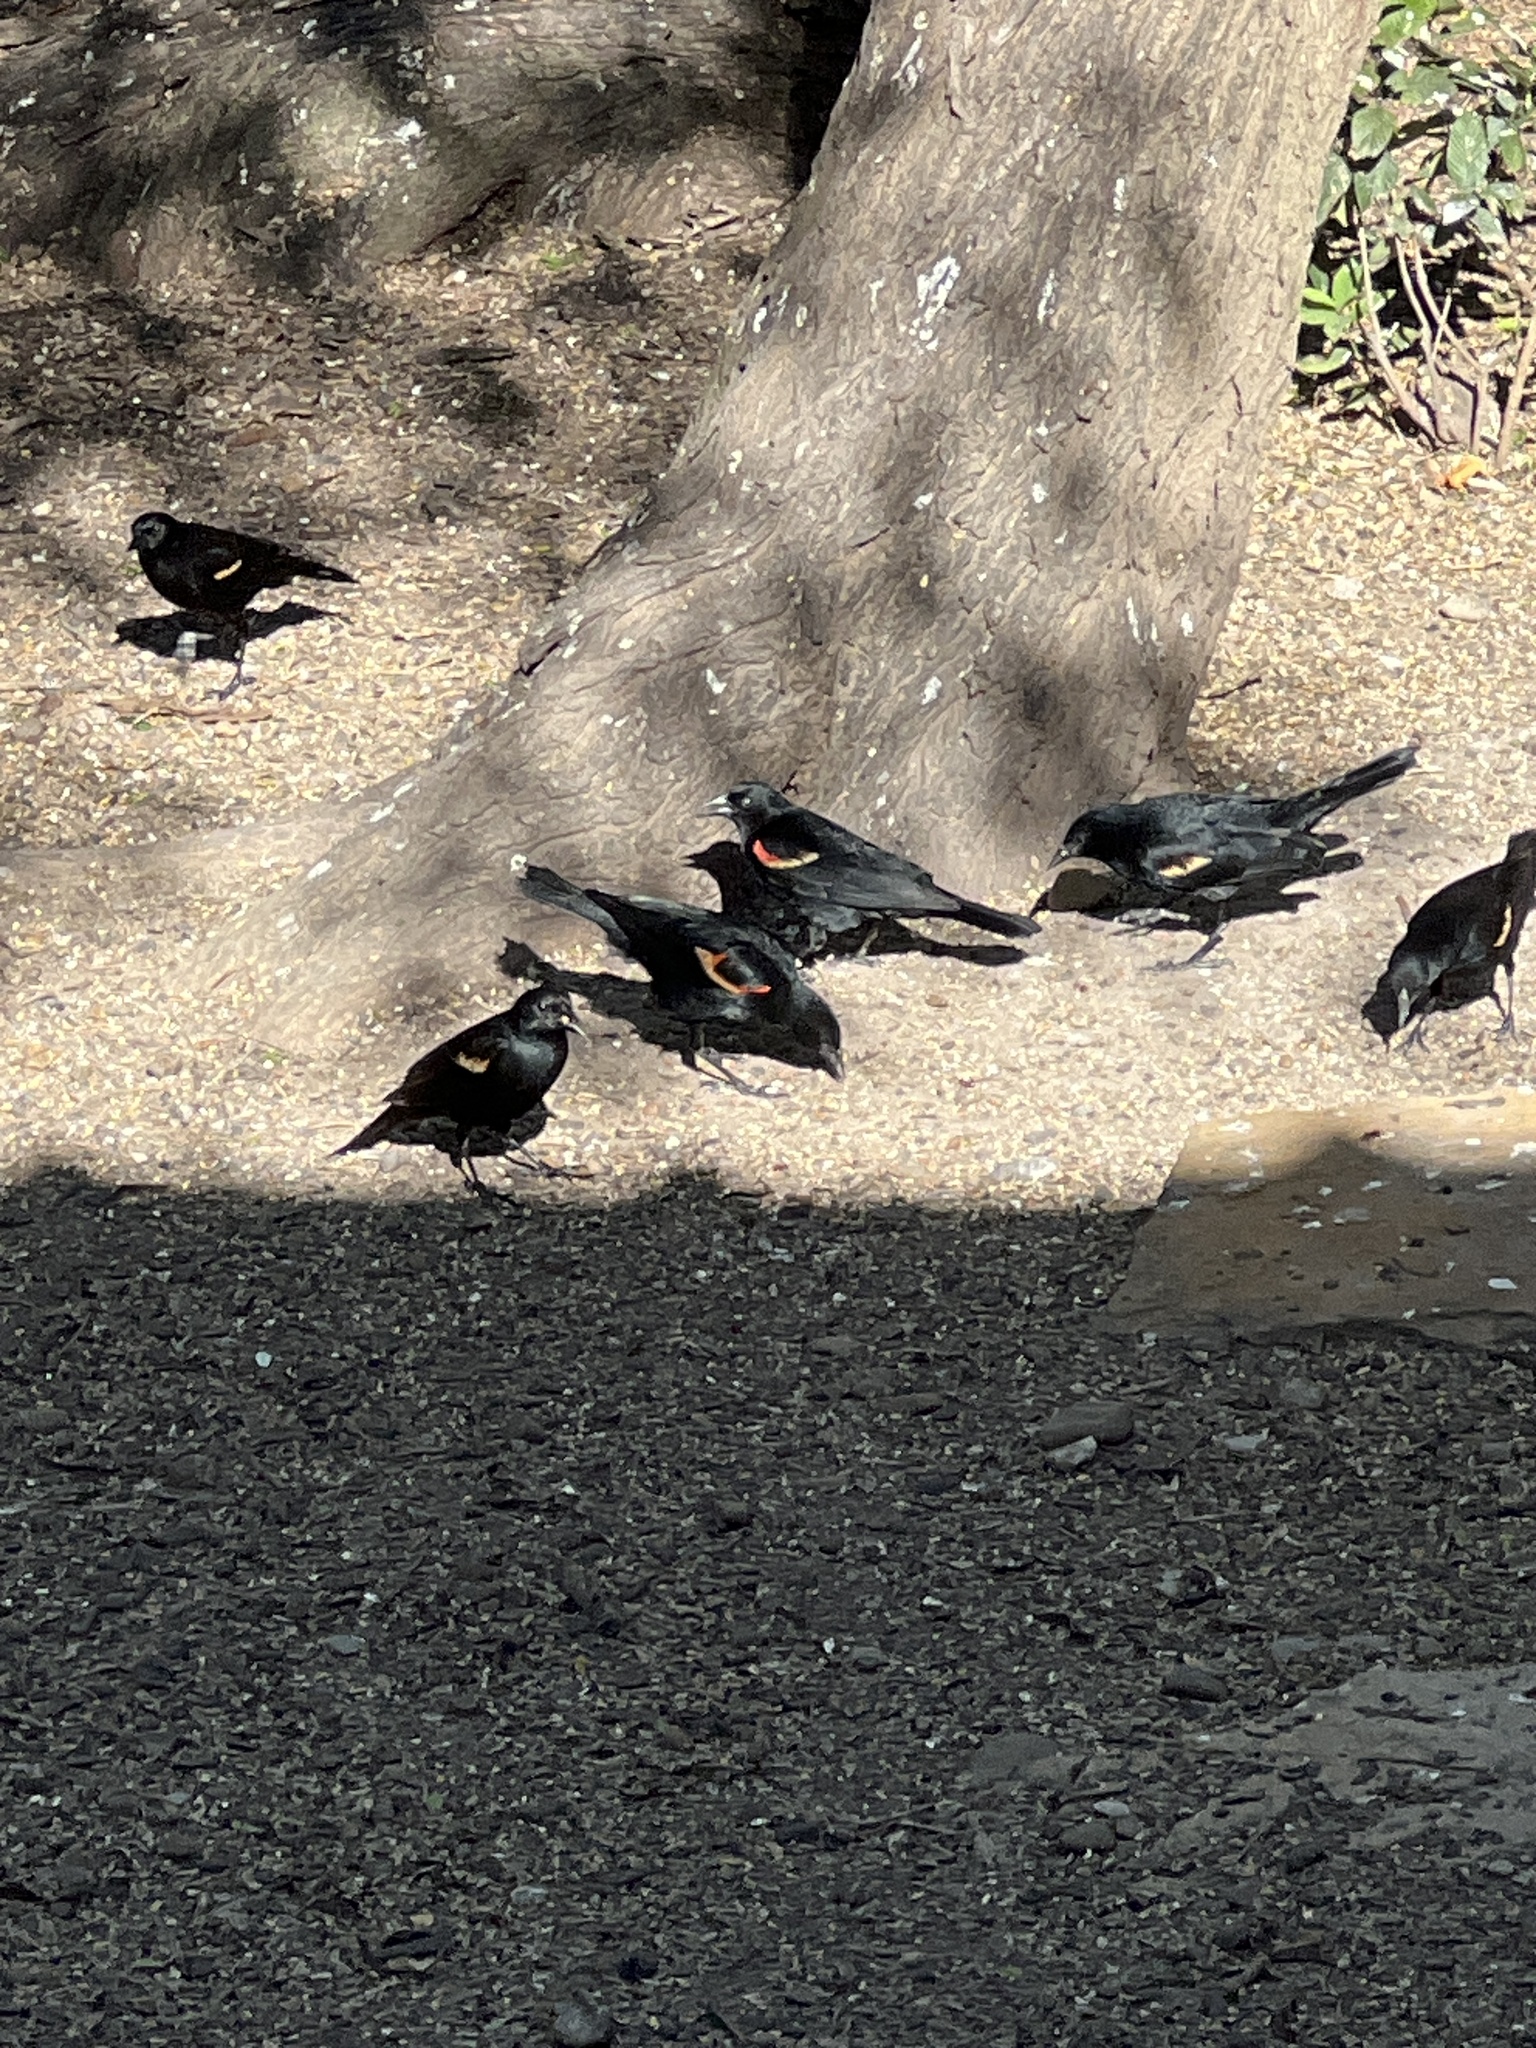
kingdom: Animalia
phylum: Chordata
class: Aves
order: Passeriformes
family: Icteridae
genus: Agelaius
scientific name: Agelaius phoeniceus
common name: Red-winged blackbird
